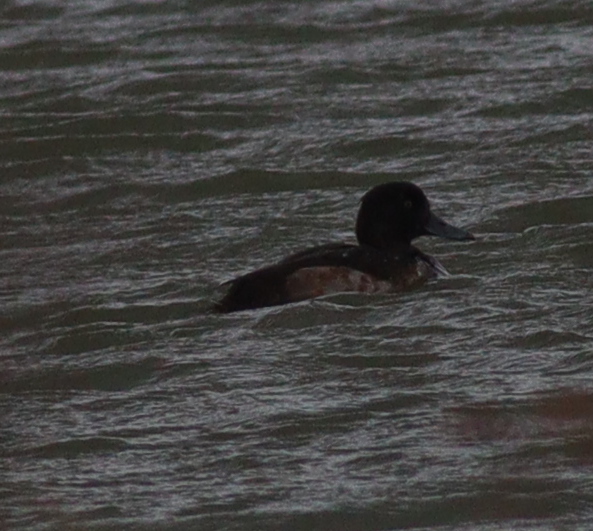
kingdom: Animalia
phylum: Chordata
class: Aves
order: Anseriformes
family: Anatidae
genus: Aythya
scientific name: Aythya fuligula
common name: Tufted duck
